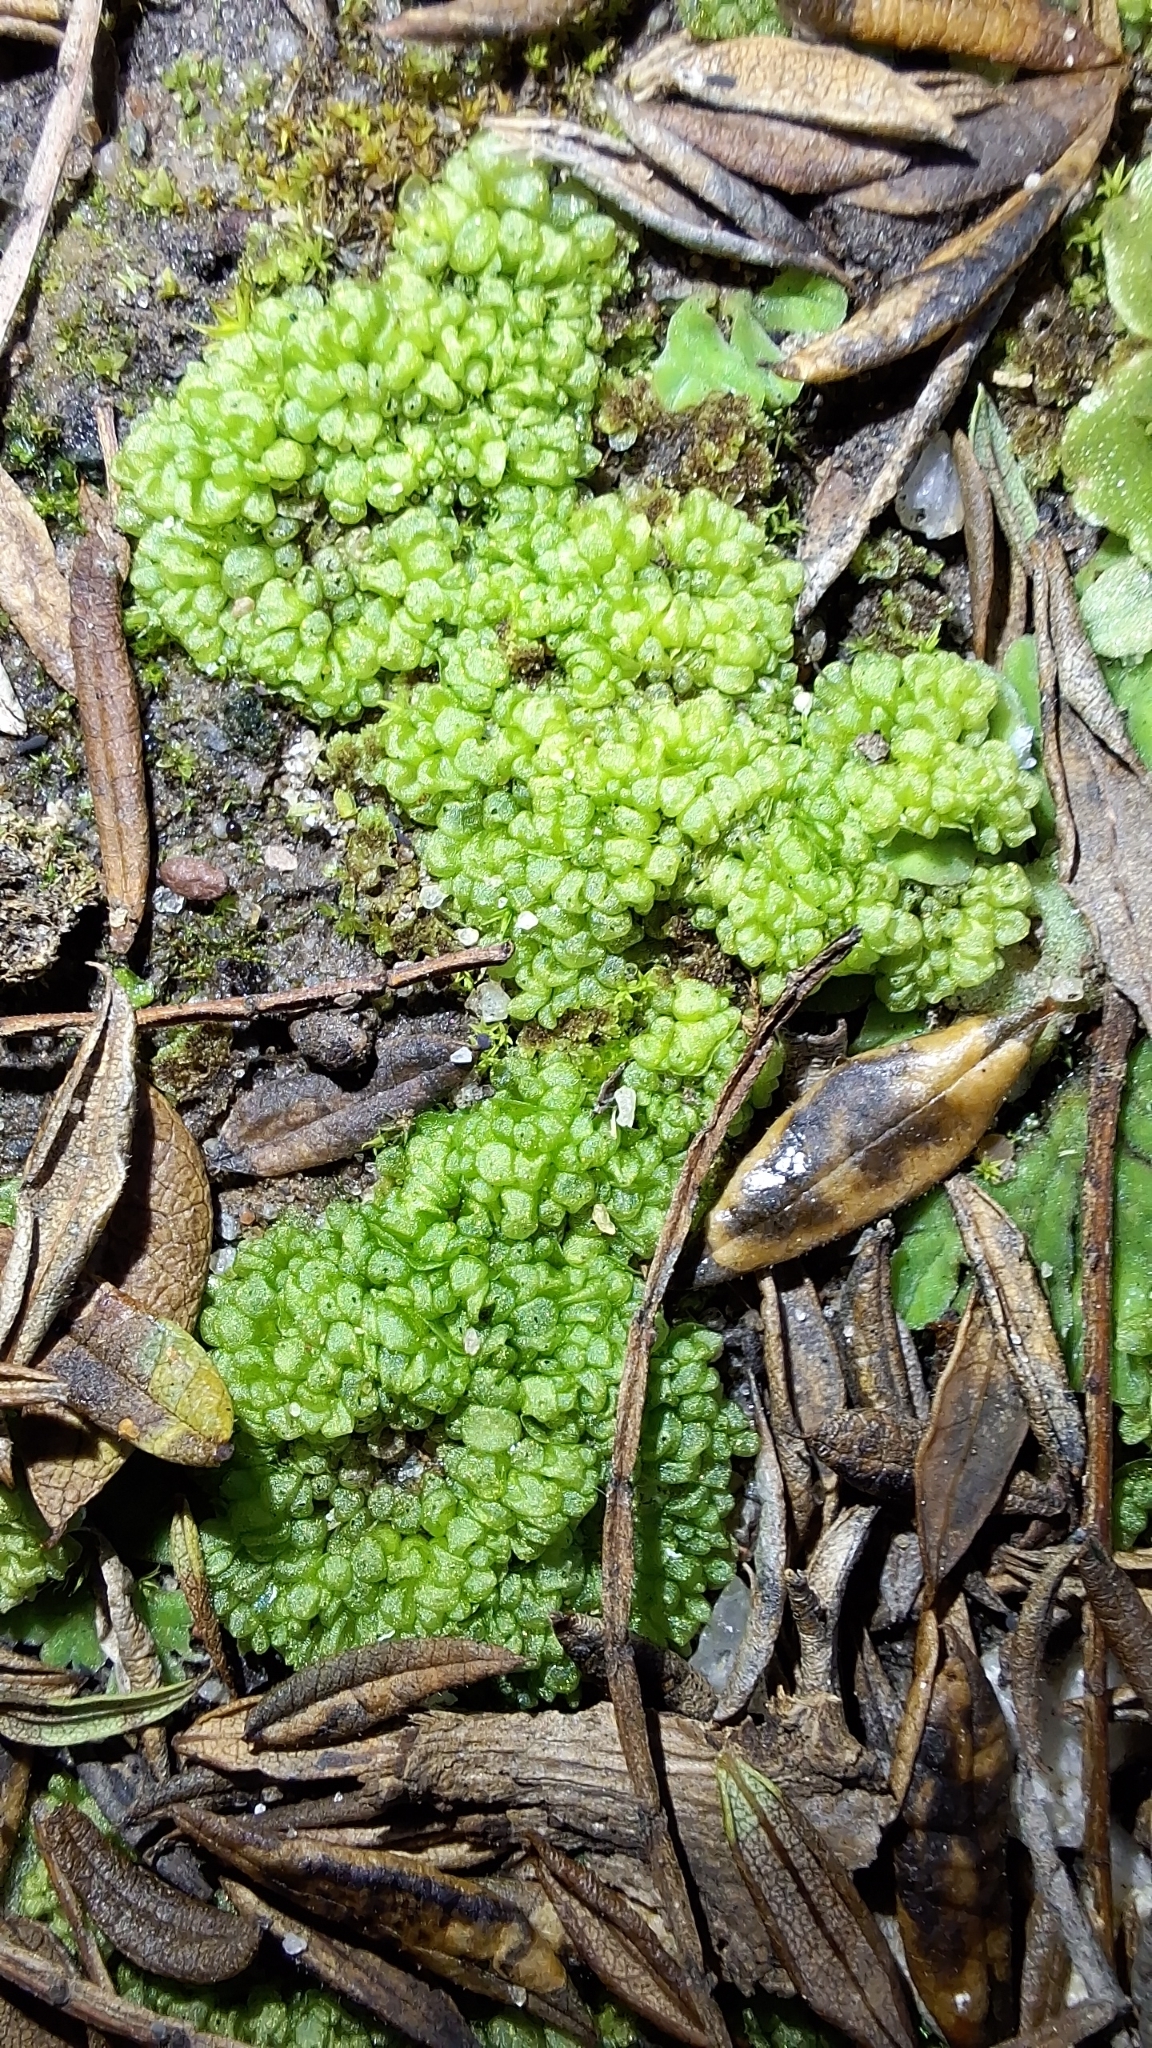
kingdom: Plantae
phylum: Marchantiophyta
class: Marchantiopsida
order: Sphaerocarpales
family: Sphaerocarpaceae
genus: Sphaerocarpos
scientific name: Sphaerocarpos texanus
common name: Texas balloonwort
